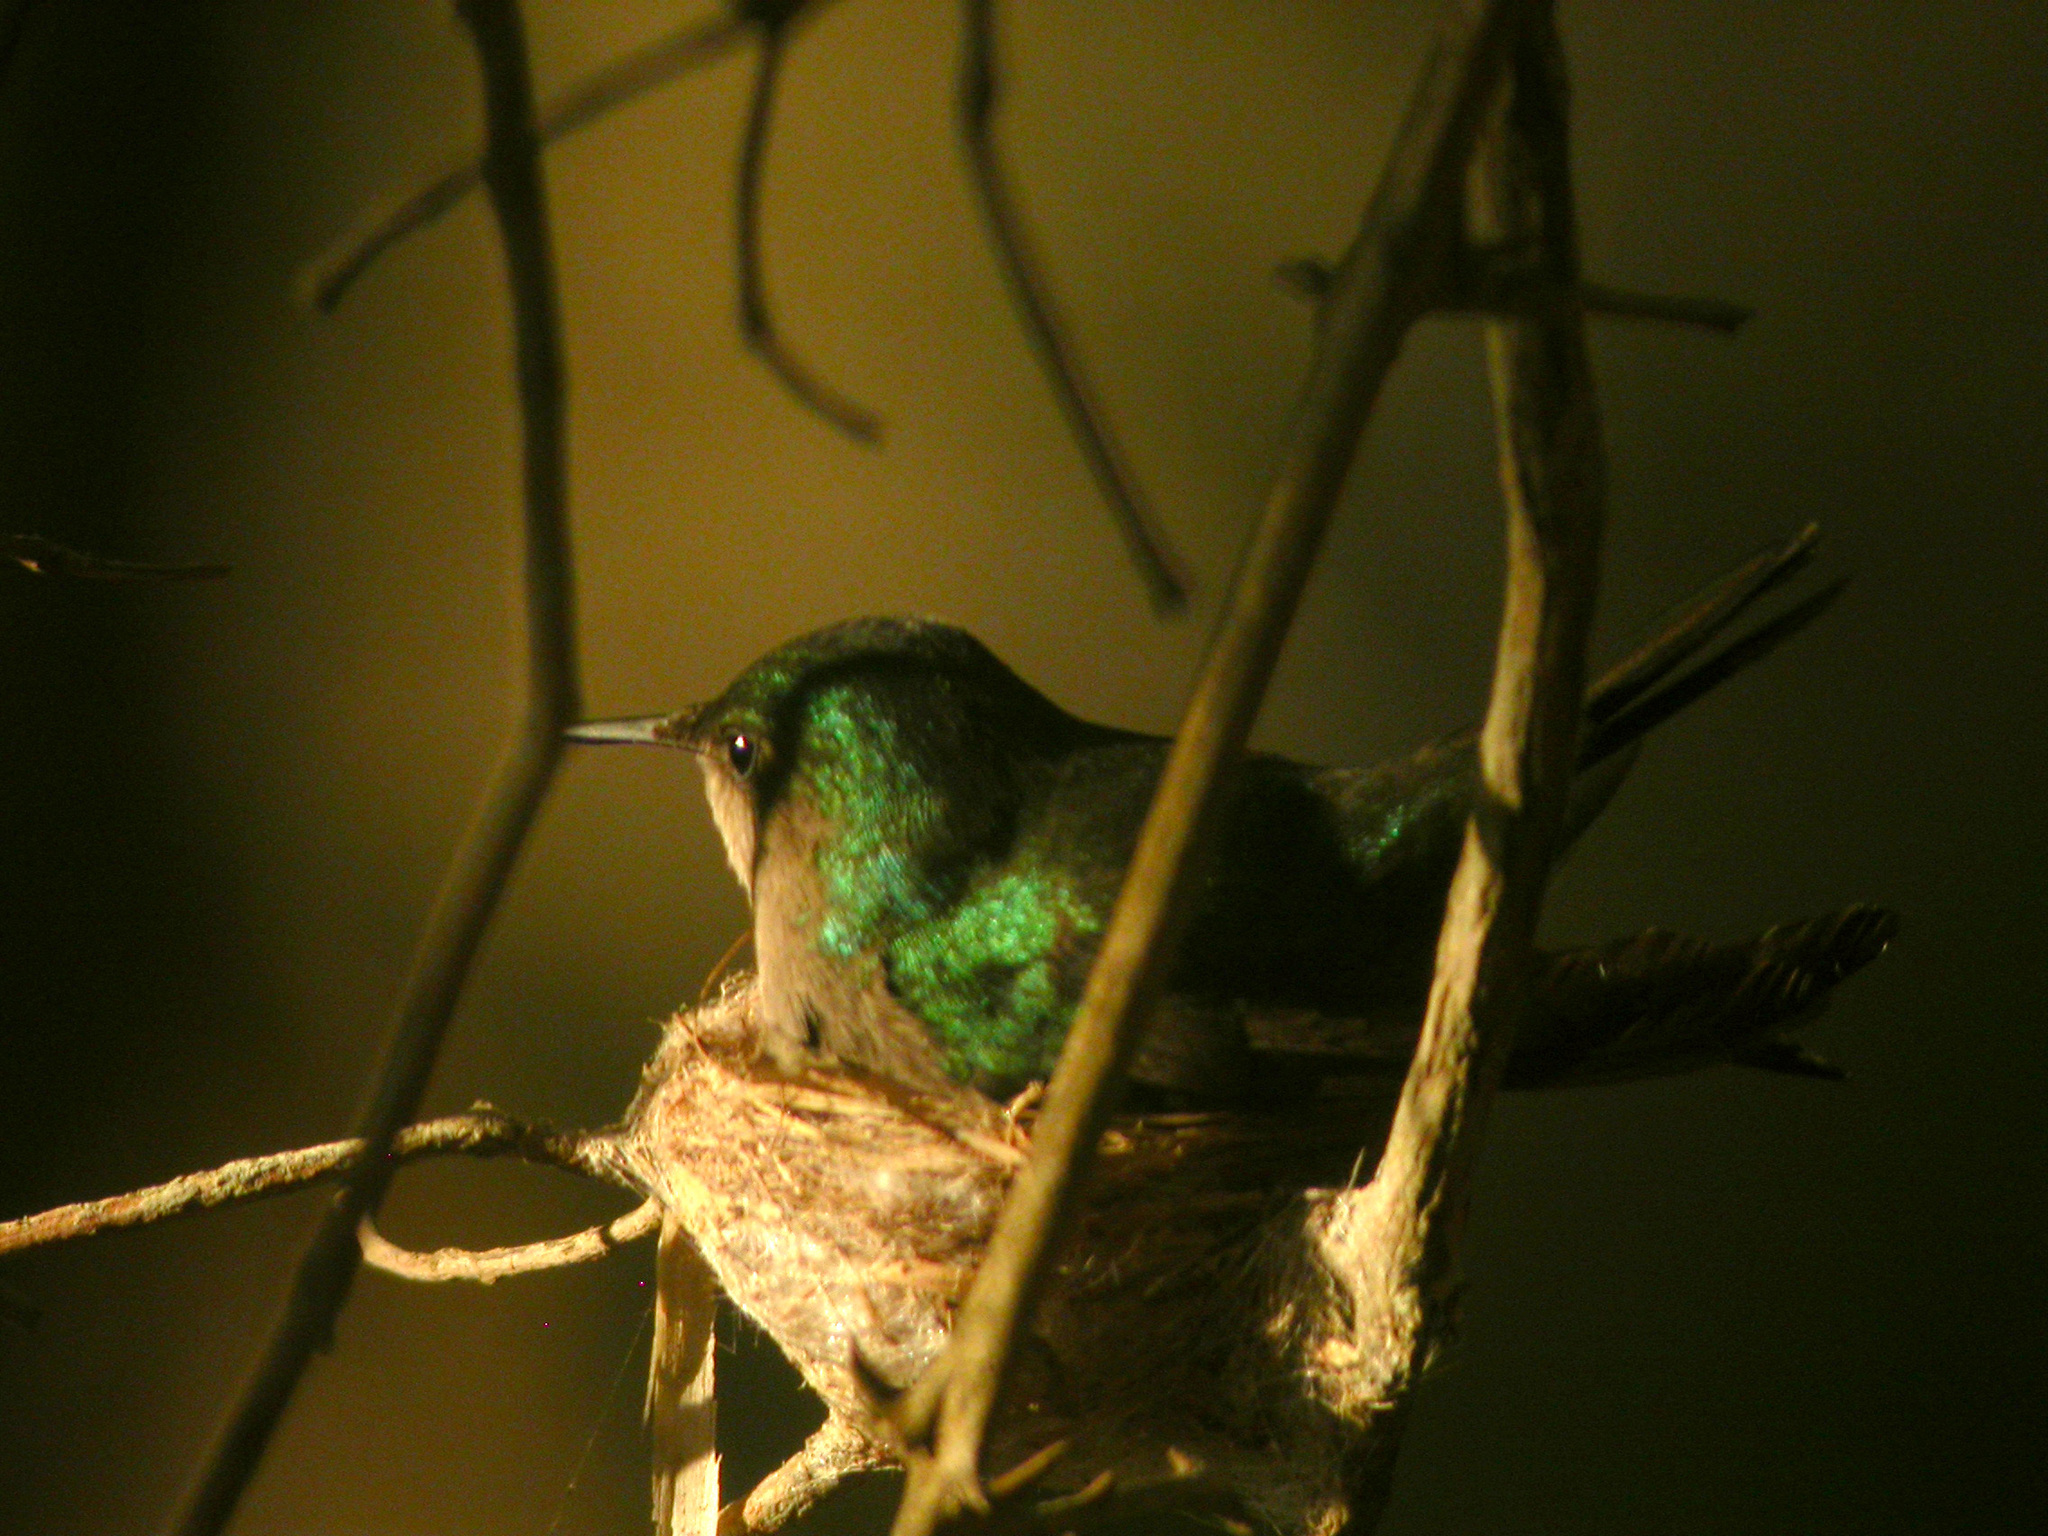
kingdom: Animalia
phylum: Chordata
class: Aves
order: Apodiformes
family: Trochilidae
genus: Orthorhyncus
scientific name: Orthorhyncus cristatus
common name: Antillean crested hummingbird
